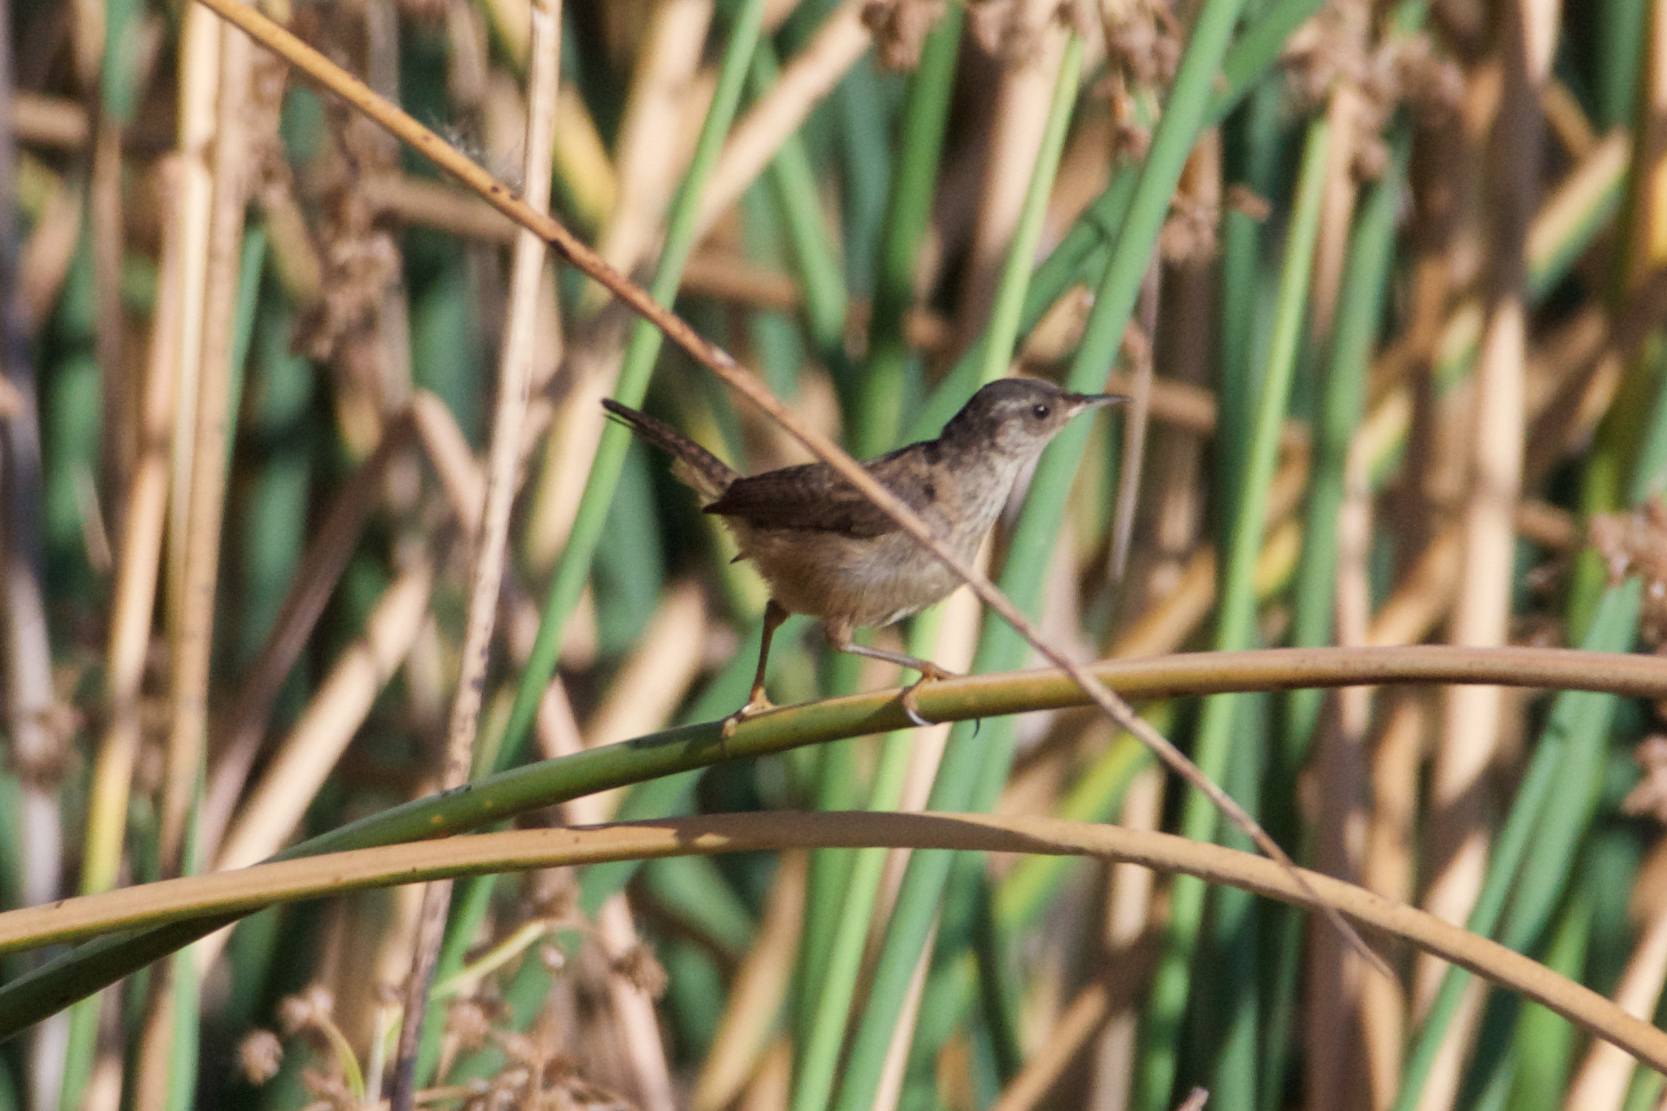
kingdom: Animalia
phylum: Chordata
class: Aves
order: Passeriformes
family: Troglodytidae
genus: Cistothorus
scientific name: Cistothorus palustris
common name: Marsh wren
